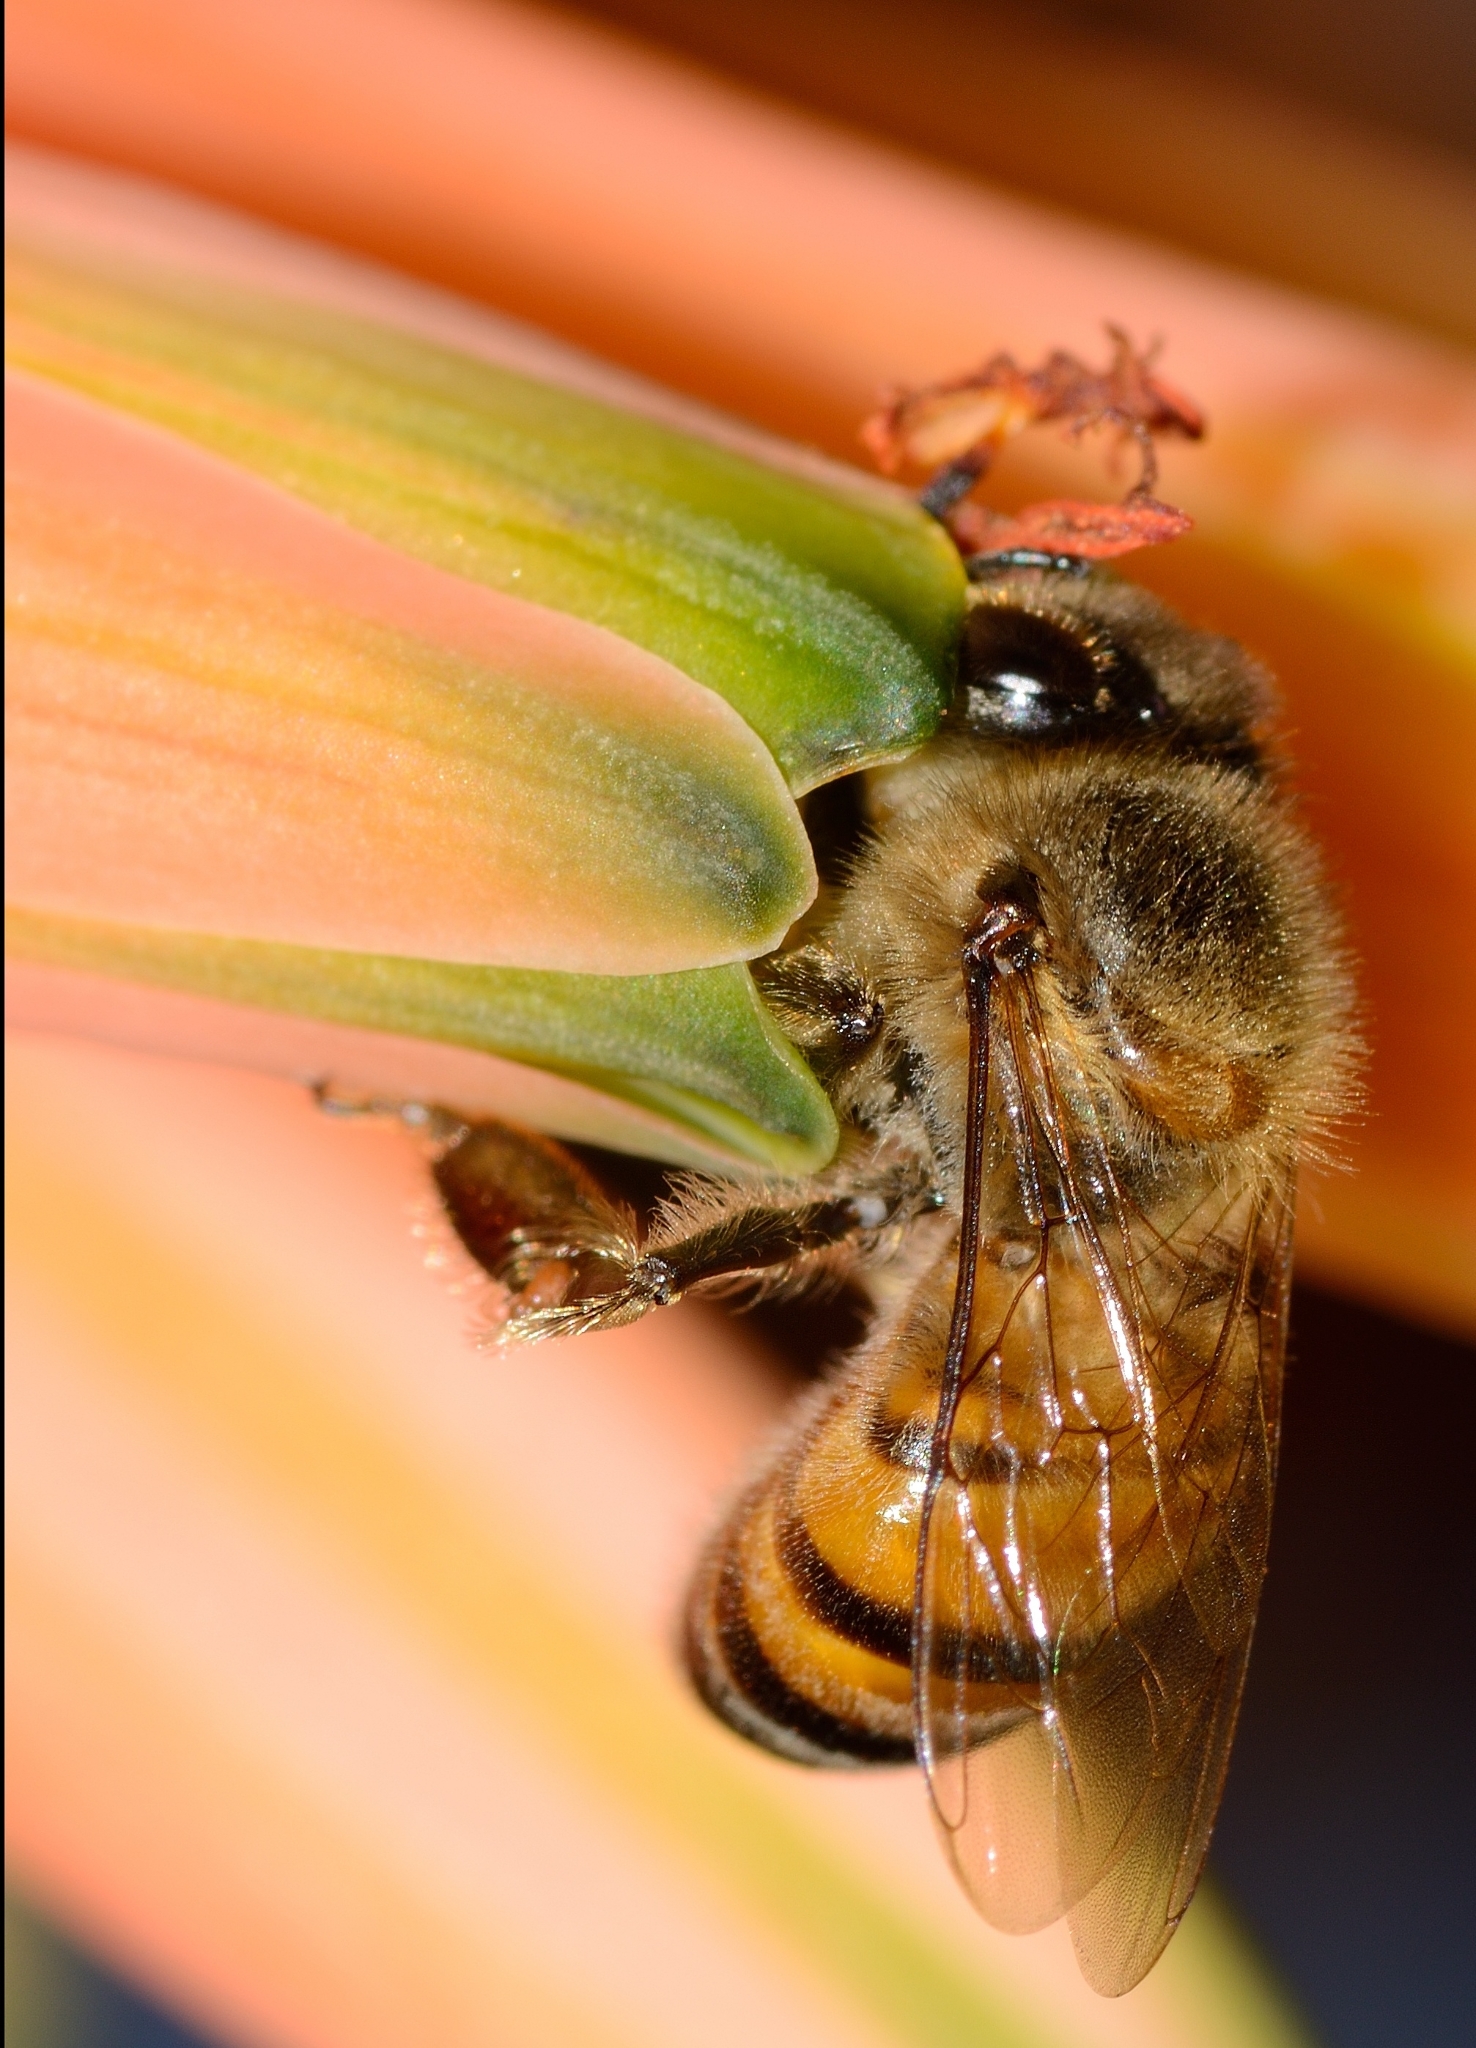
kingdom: Animalia
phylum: Arthropoda
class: Insecta
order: Hymenoptera
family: Apidae
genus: Apis
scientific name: Apis mellifera
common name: Honey bee
